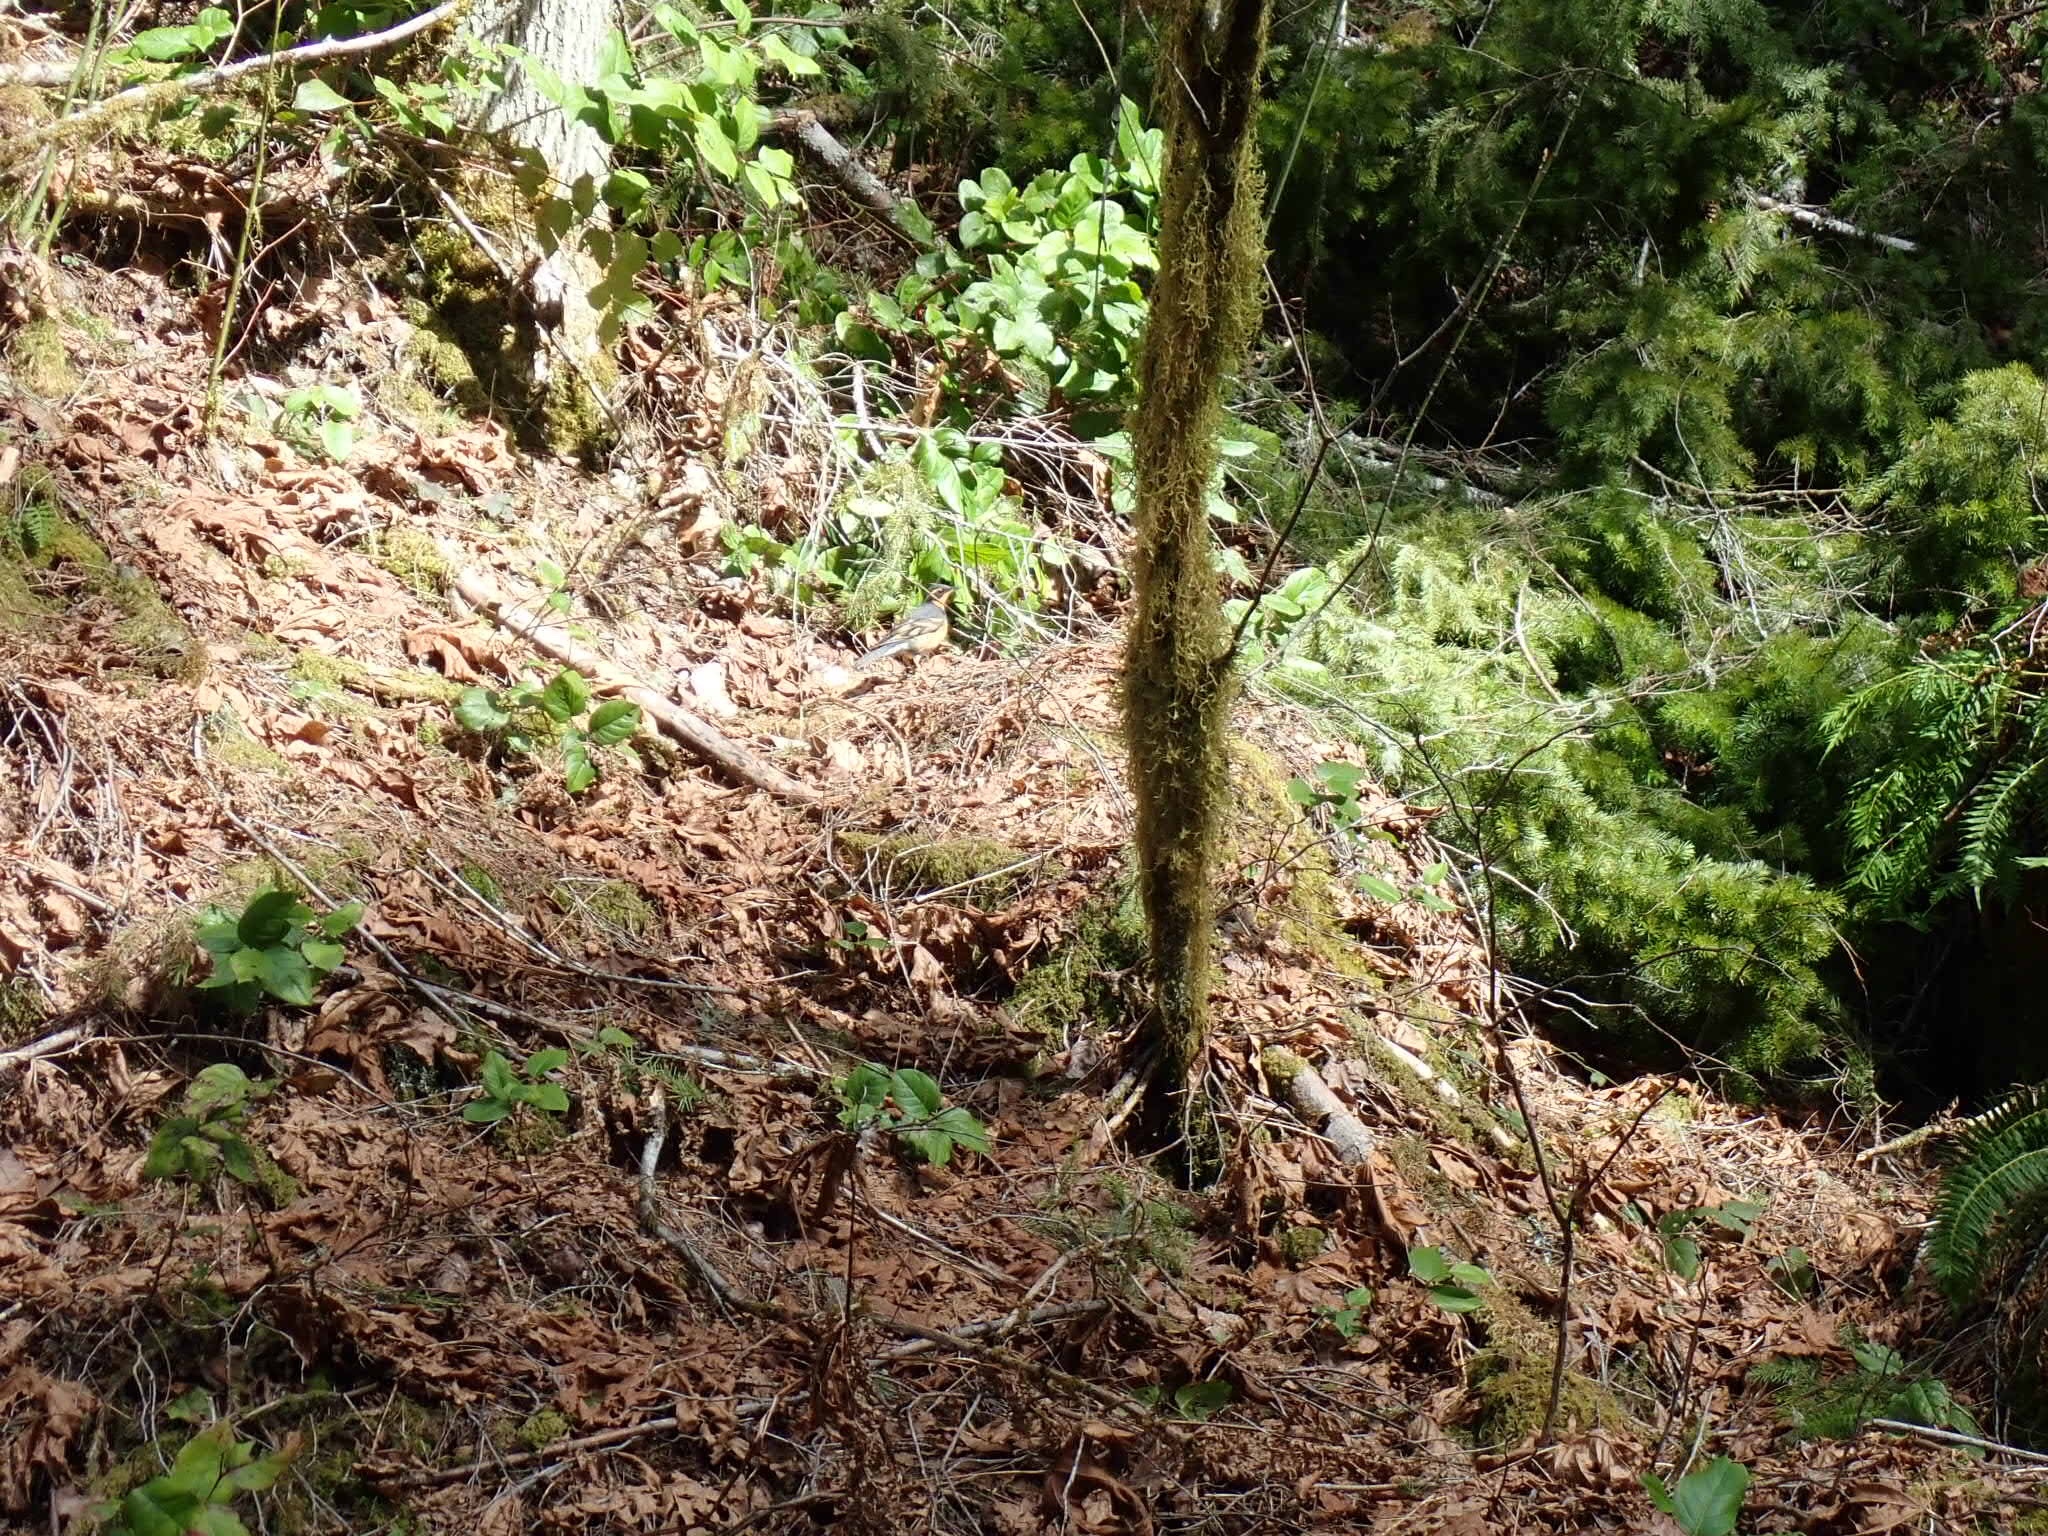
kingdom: Animalia
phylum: Chordata
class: Aves
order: Passeriformes
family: Turdidae
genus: Ixoreus
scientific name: Ixoreus naevius
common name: Varied thrush
